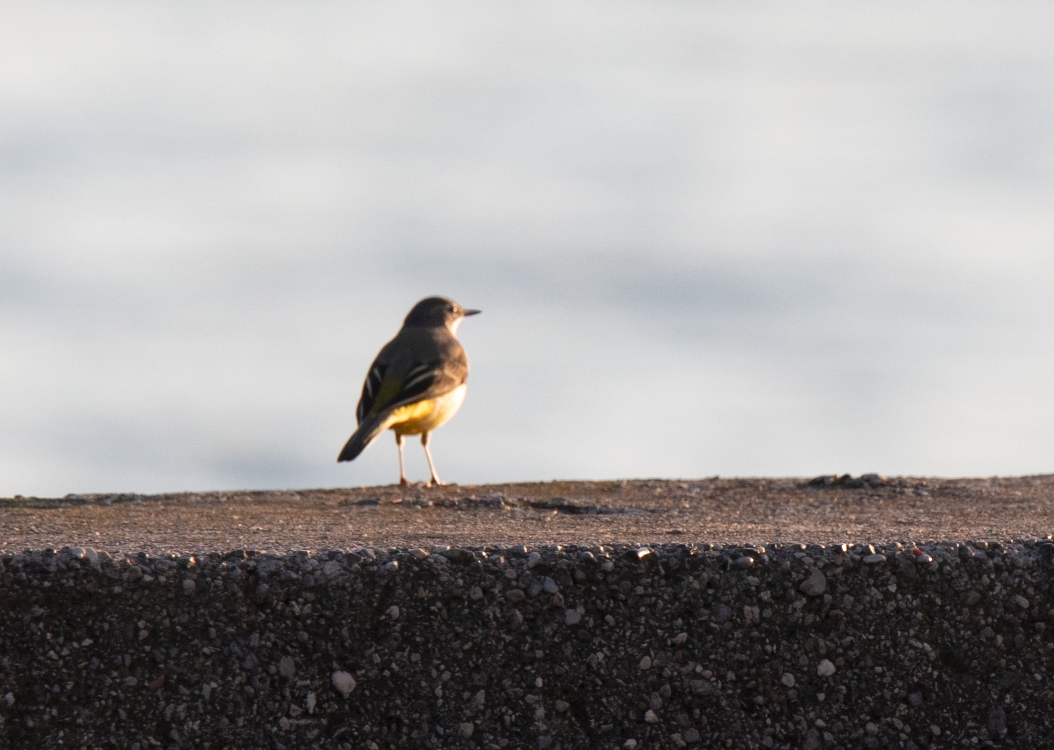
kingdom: Animalia
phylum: Chordata
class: Aves
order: Passeriformes
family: Motacillidae
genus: Motacilla
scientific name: Motacilla cinerea
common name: Grey wagtail
